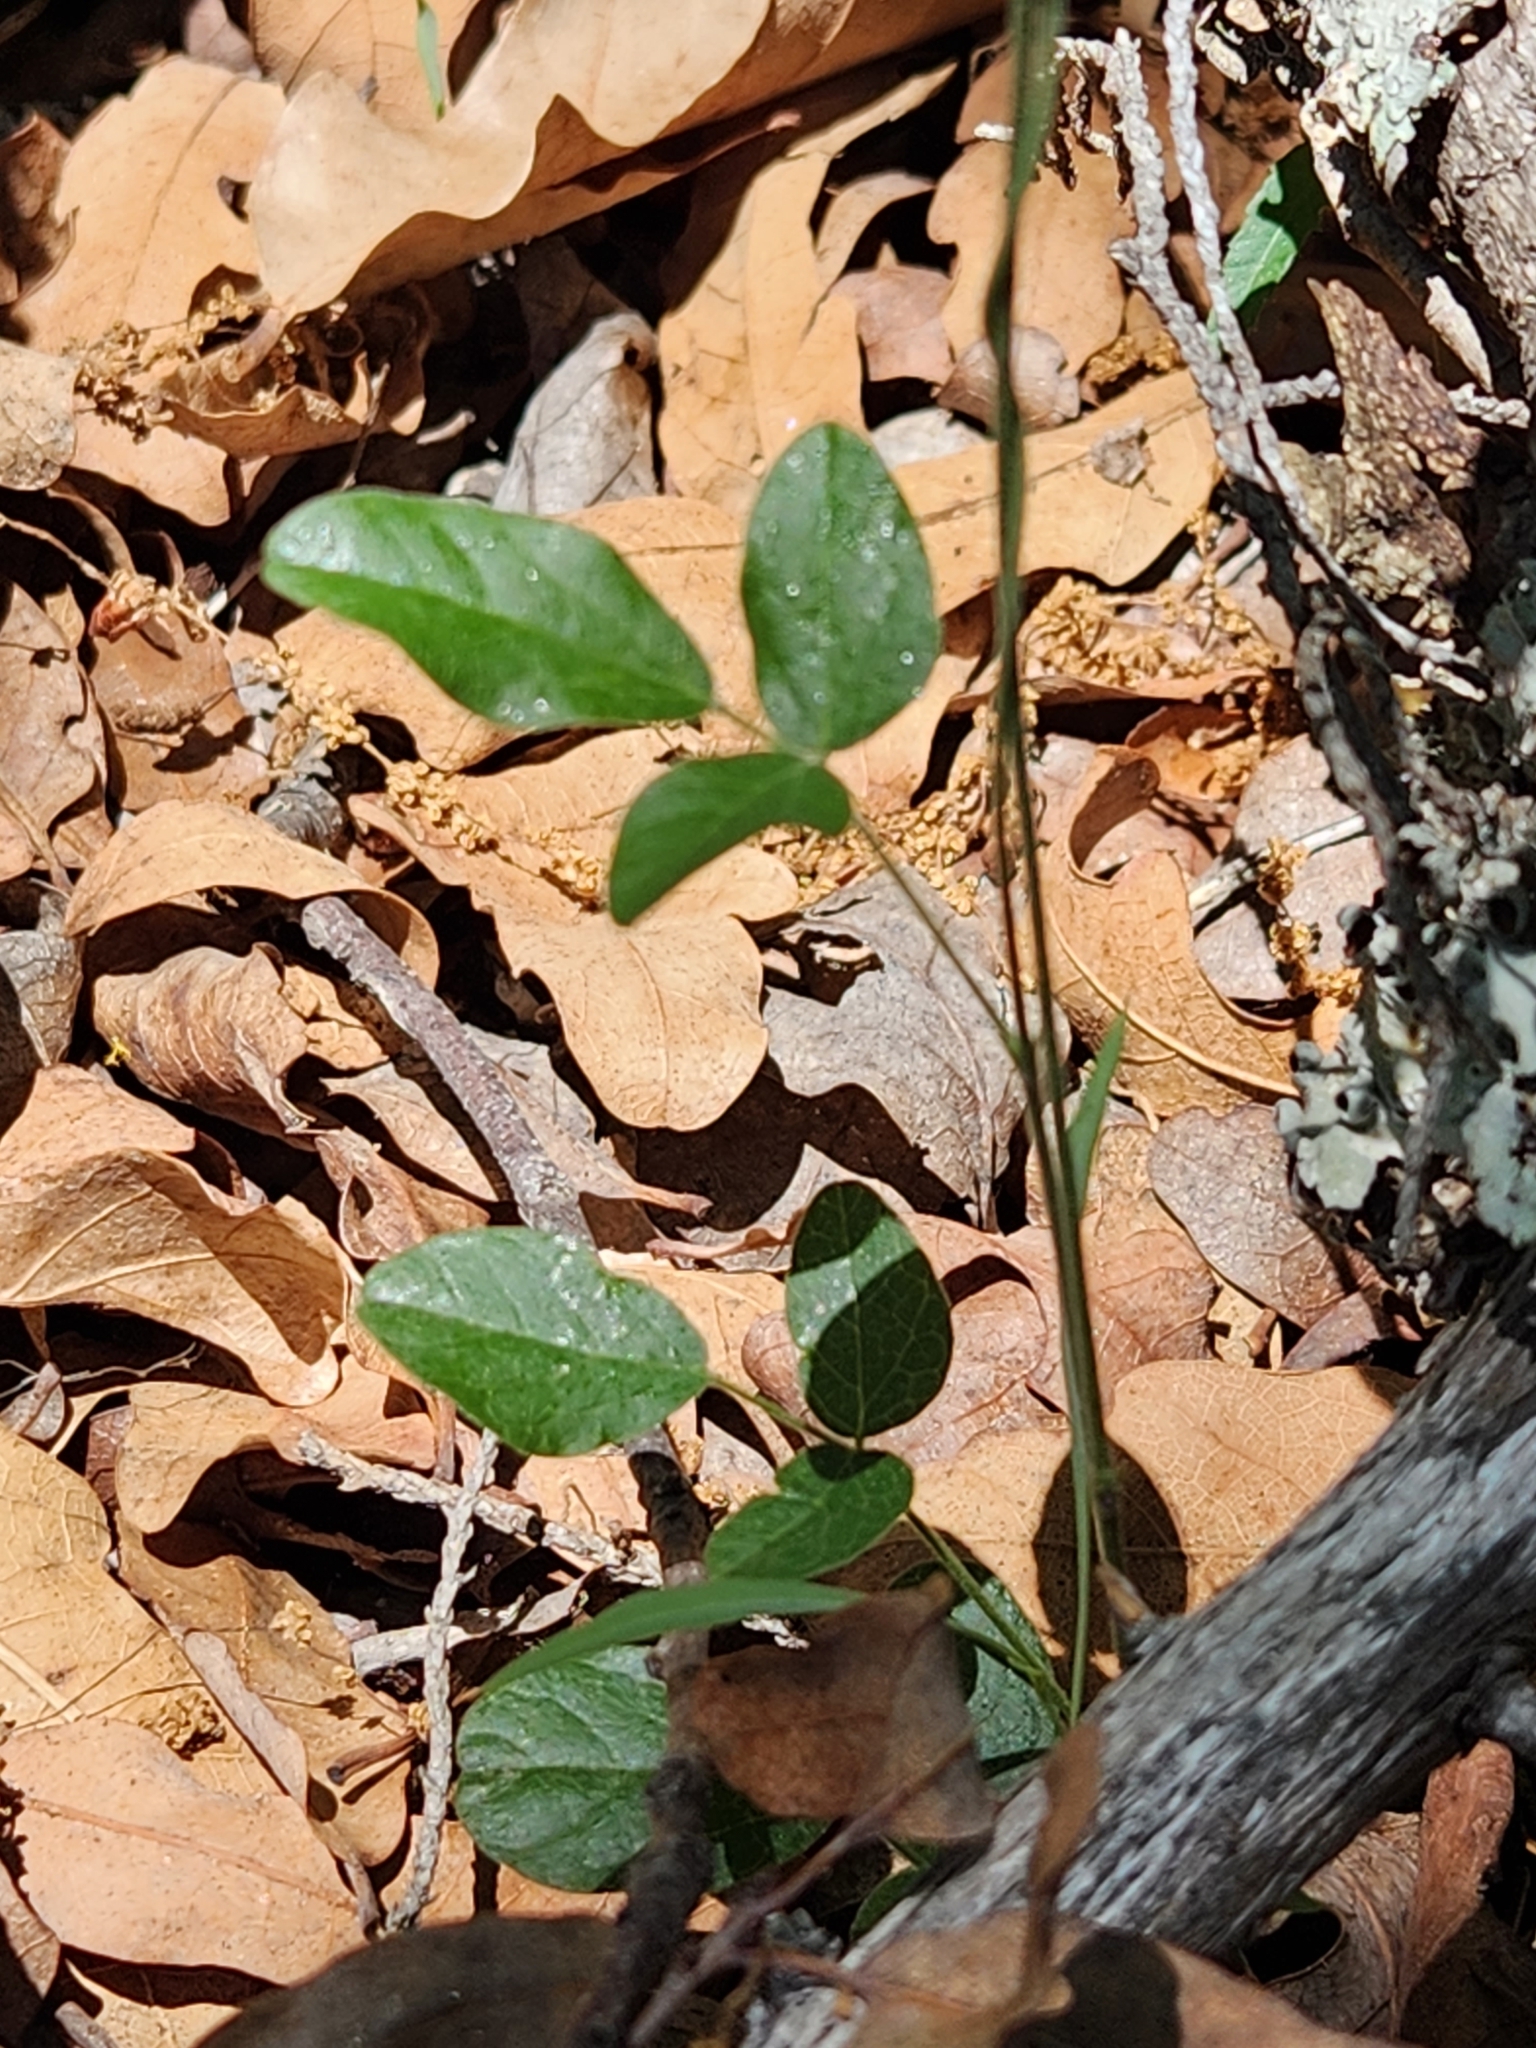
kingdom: Plantae
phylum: Tracheophyta
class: Magnoliopsida
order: Fabales
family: Fabaceae
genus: Rhynchosia
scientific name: Rhynchosia senna
